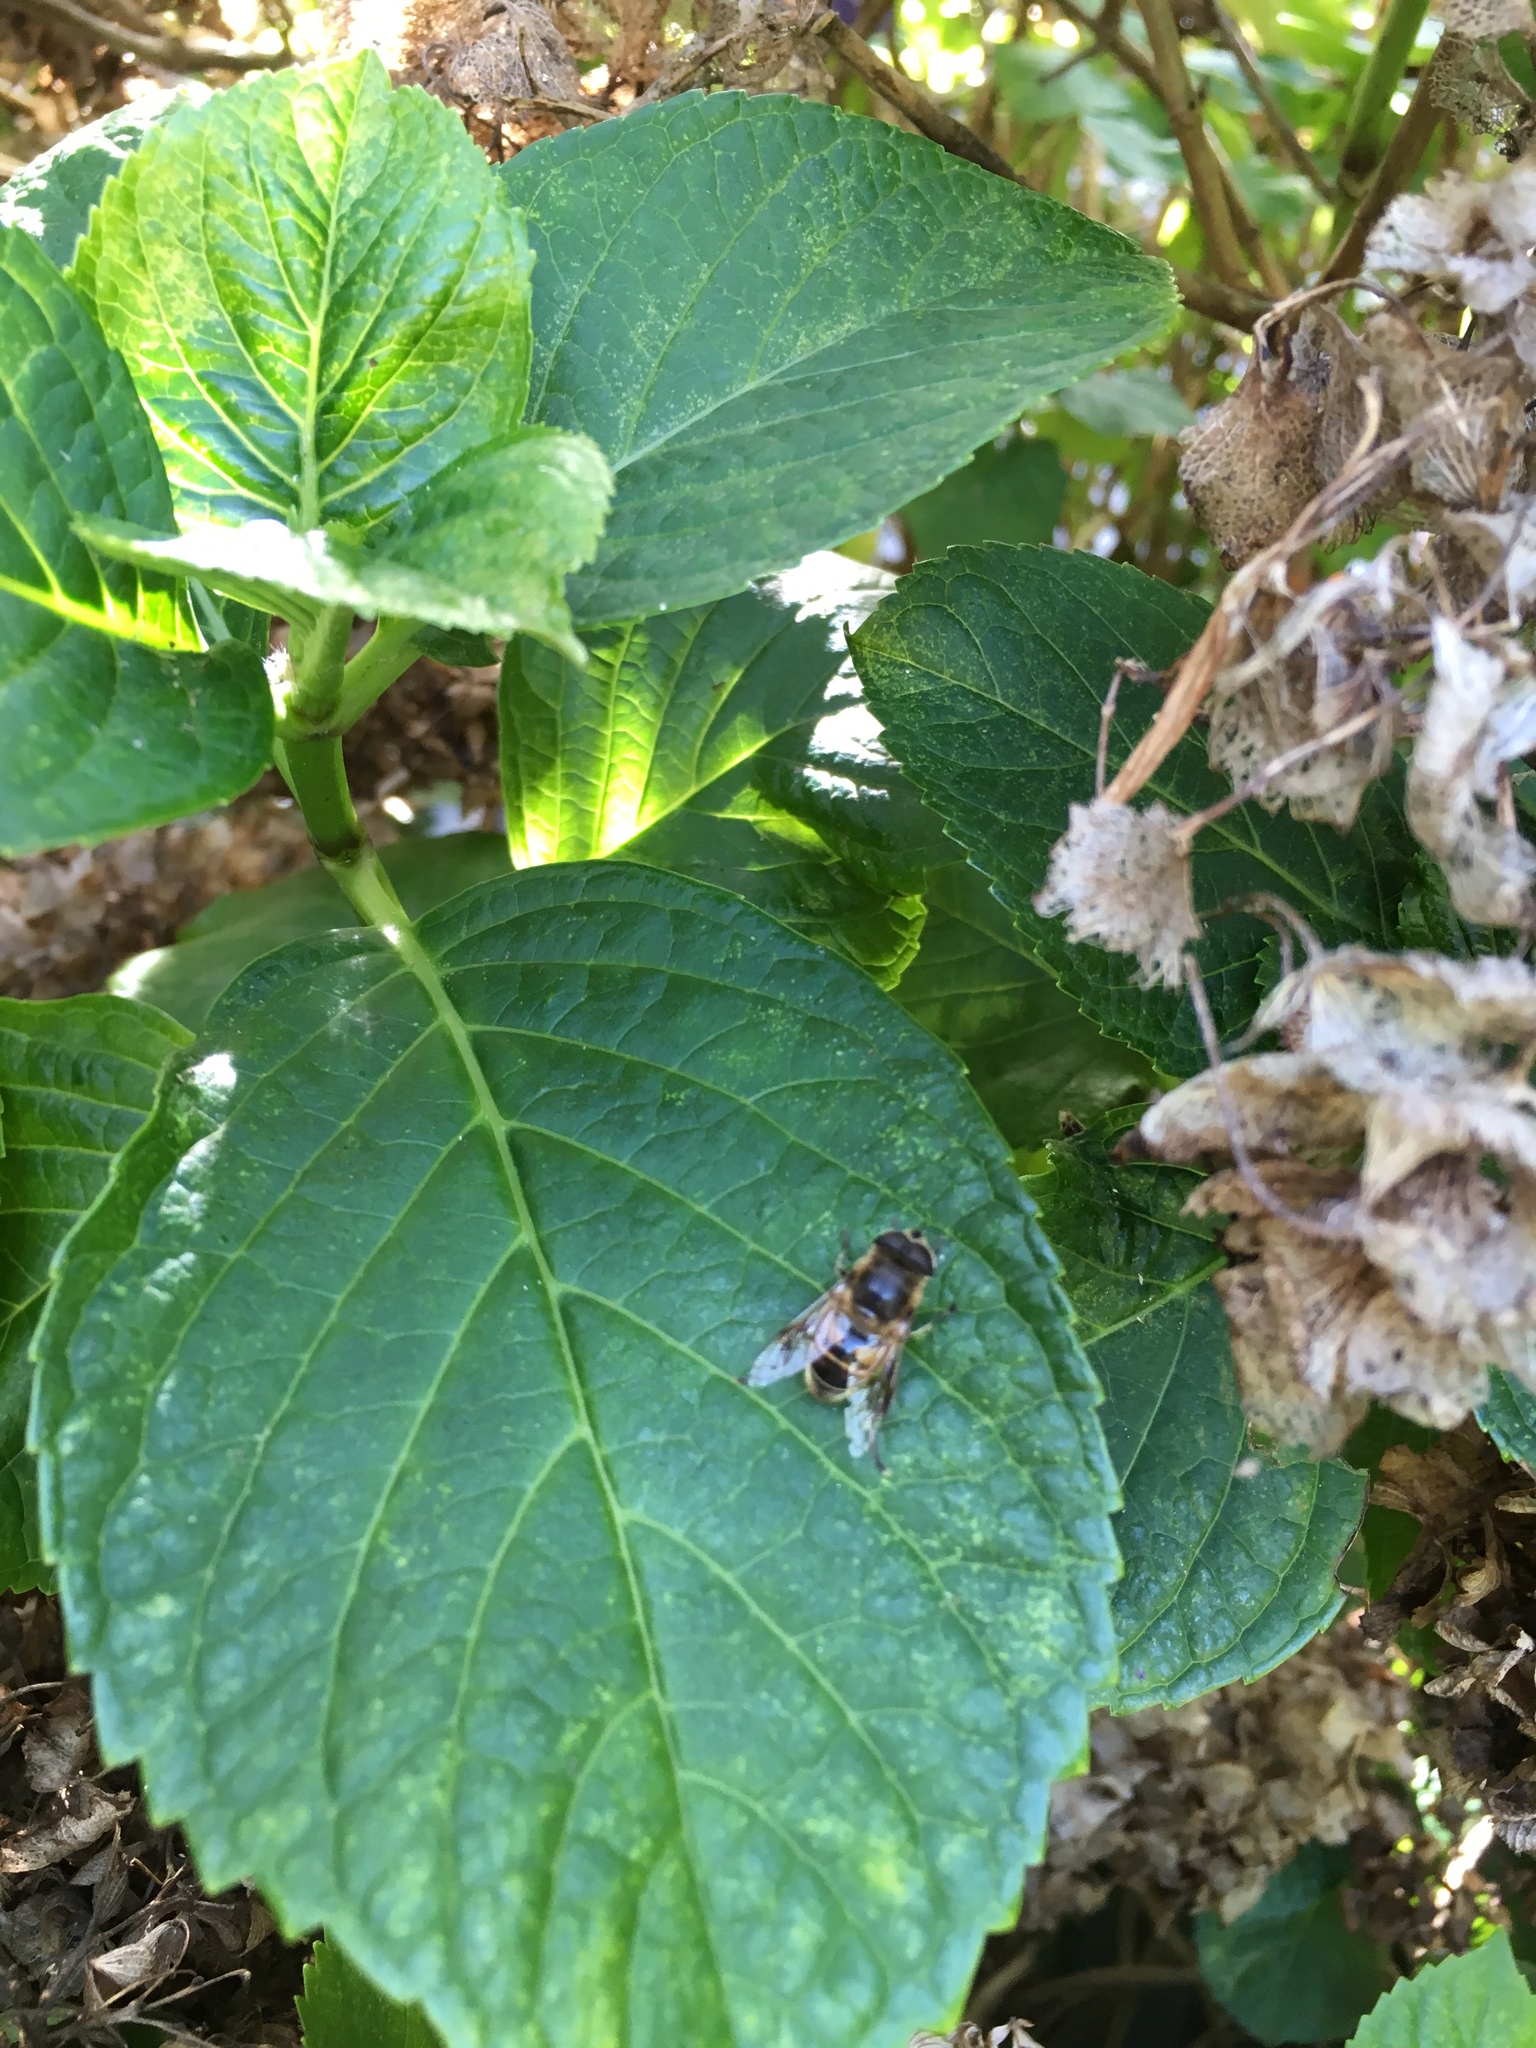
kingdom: Animalia
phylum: Arthropoda
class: Insecta
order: Diptera
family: Syrphidae
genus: Eristalis
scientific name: Eristalis tenax
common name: Drone fly
